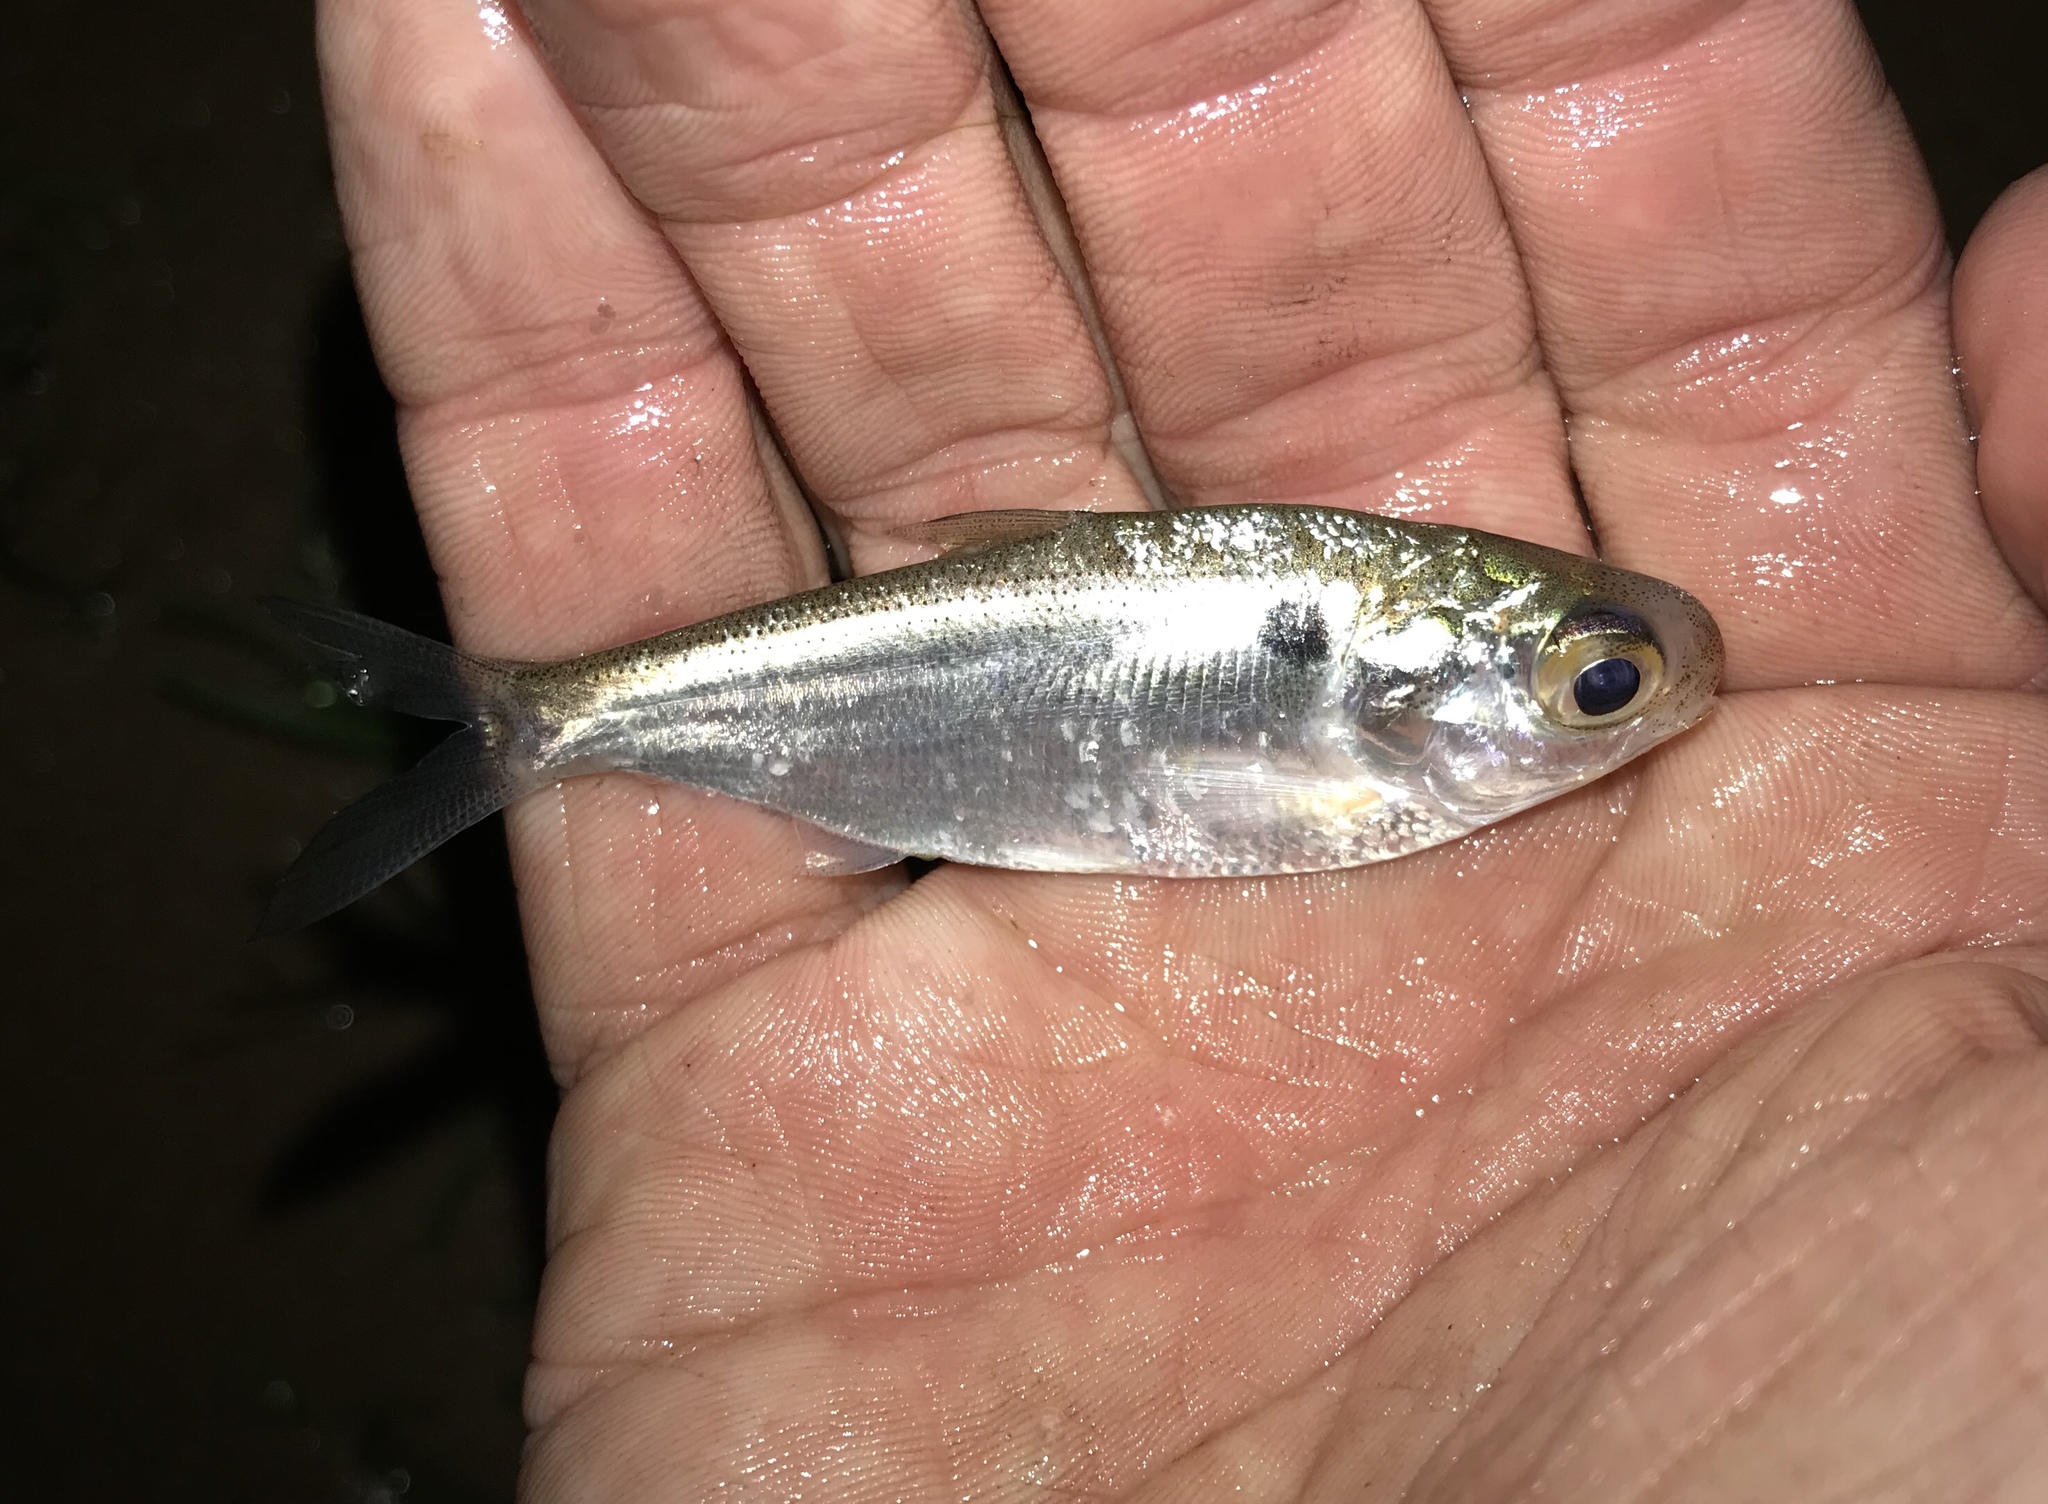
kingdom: Animalia
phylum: Chordata
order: Clupeiformes
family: Clupeidae
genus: Dorosoma
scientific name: Dorosoma cepedianum
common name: Gizzard shad
